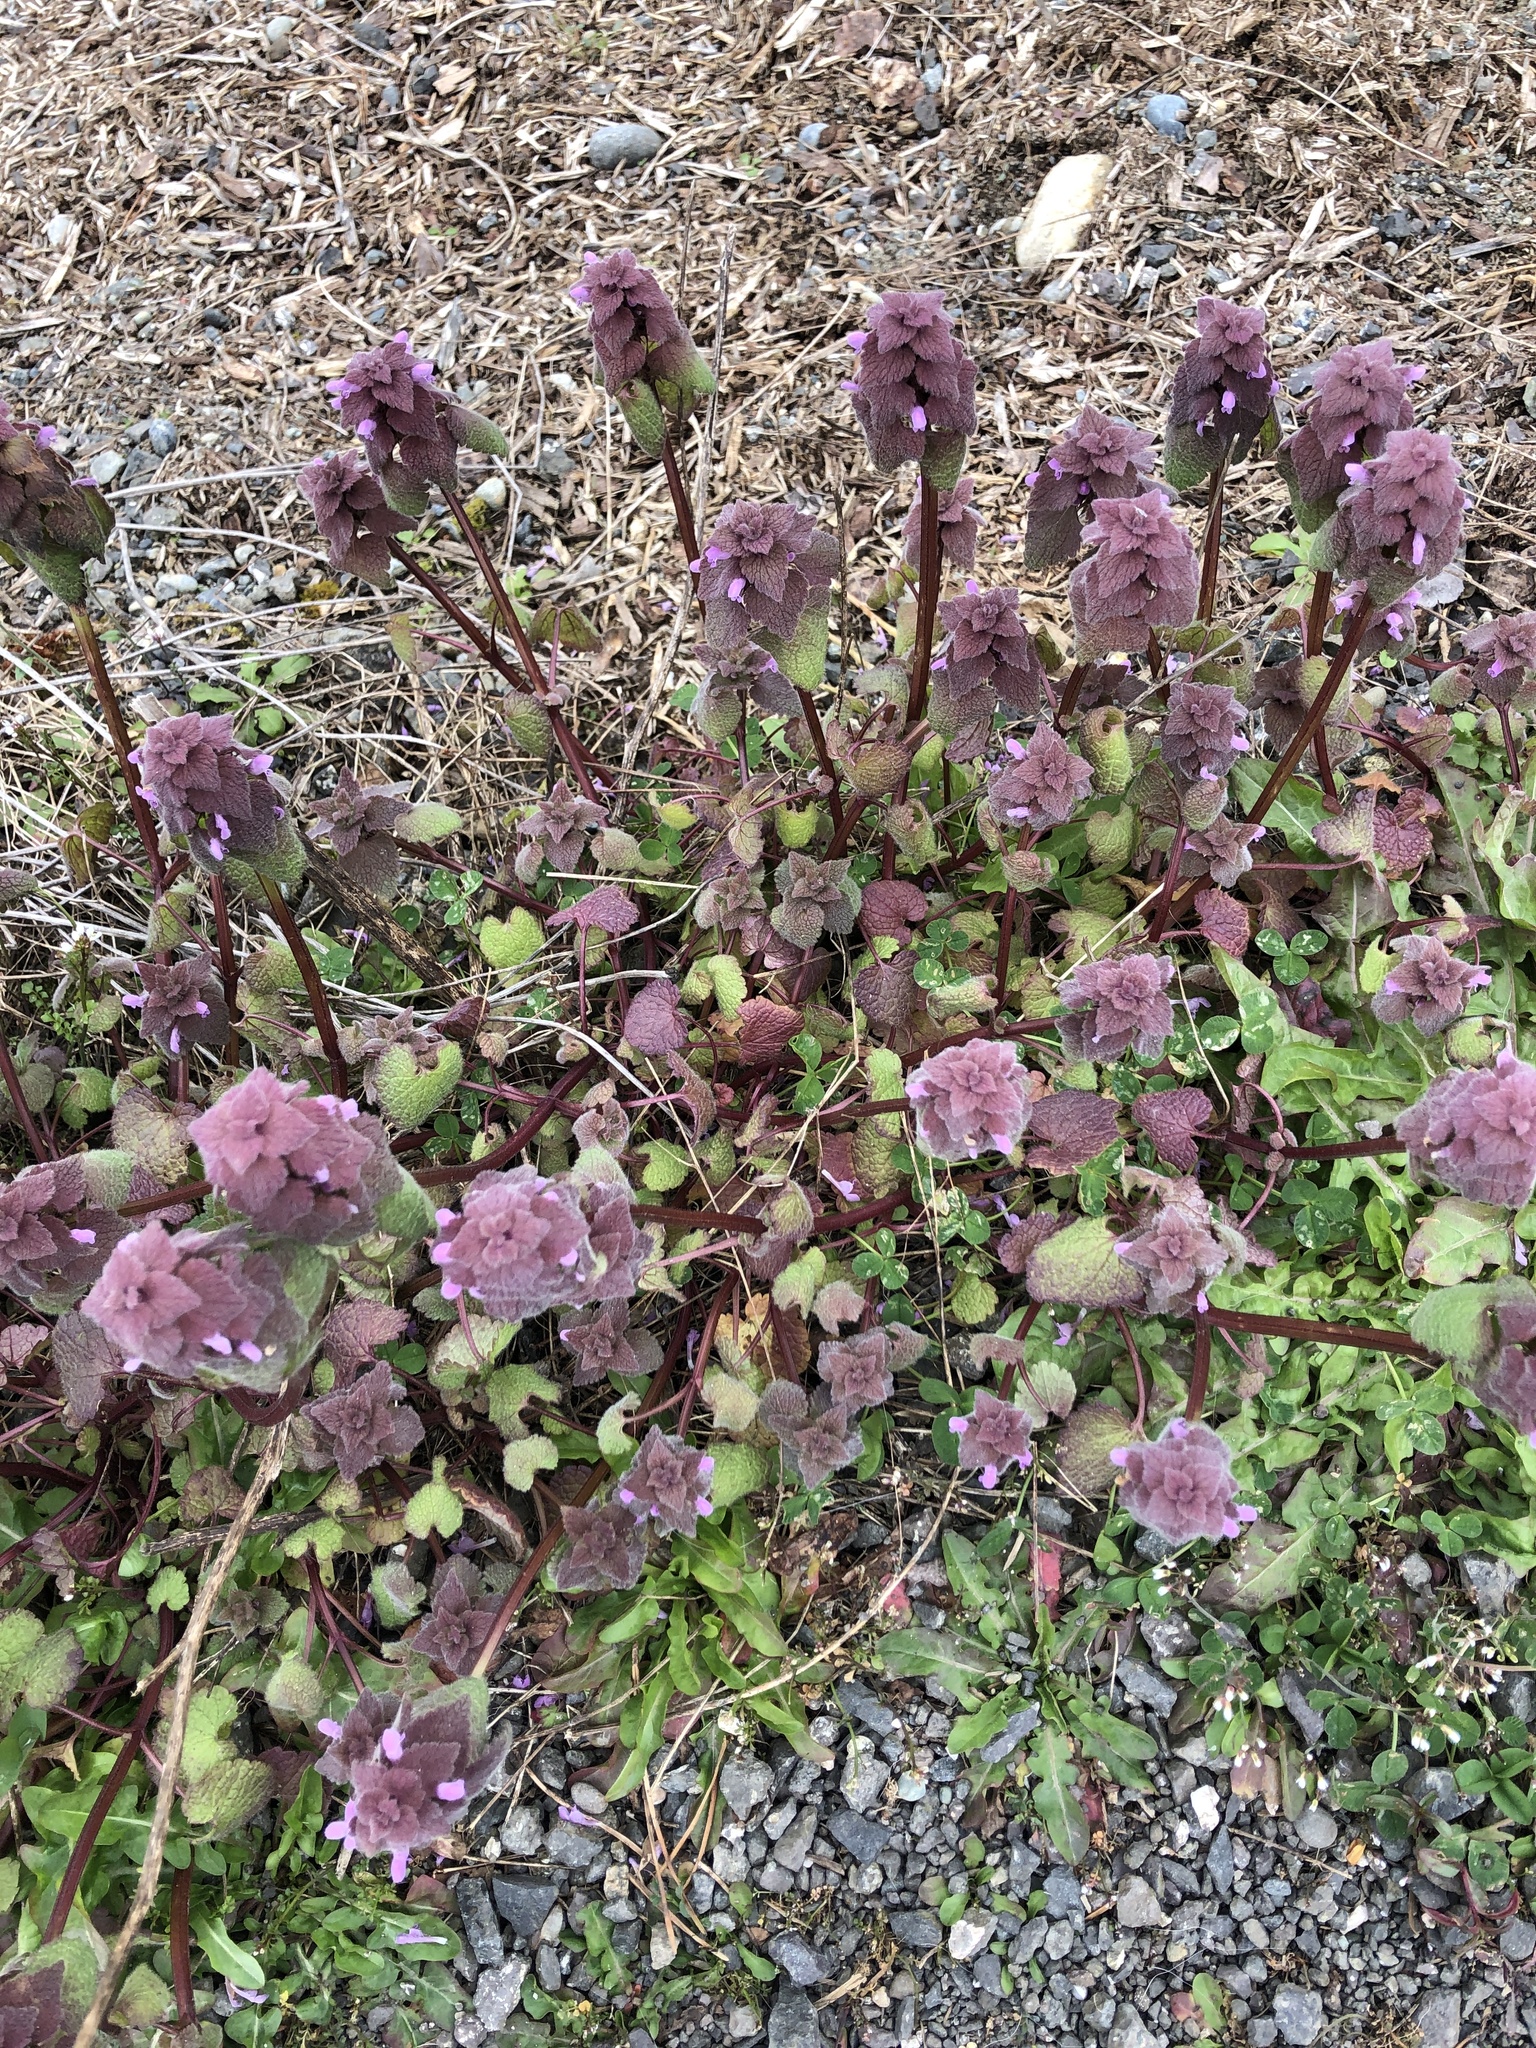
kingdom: Plantae
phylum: Tracheophyta
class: Magnoliopsida
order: Lamiales
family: Lamiaceae
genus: Lamium
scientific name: Lamium purpureum
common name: Red dead-nettle
